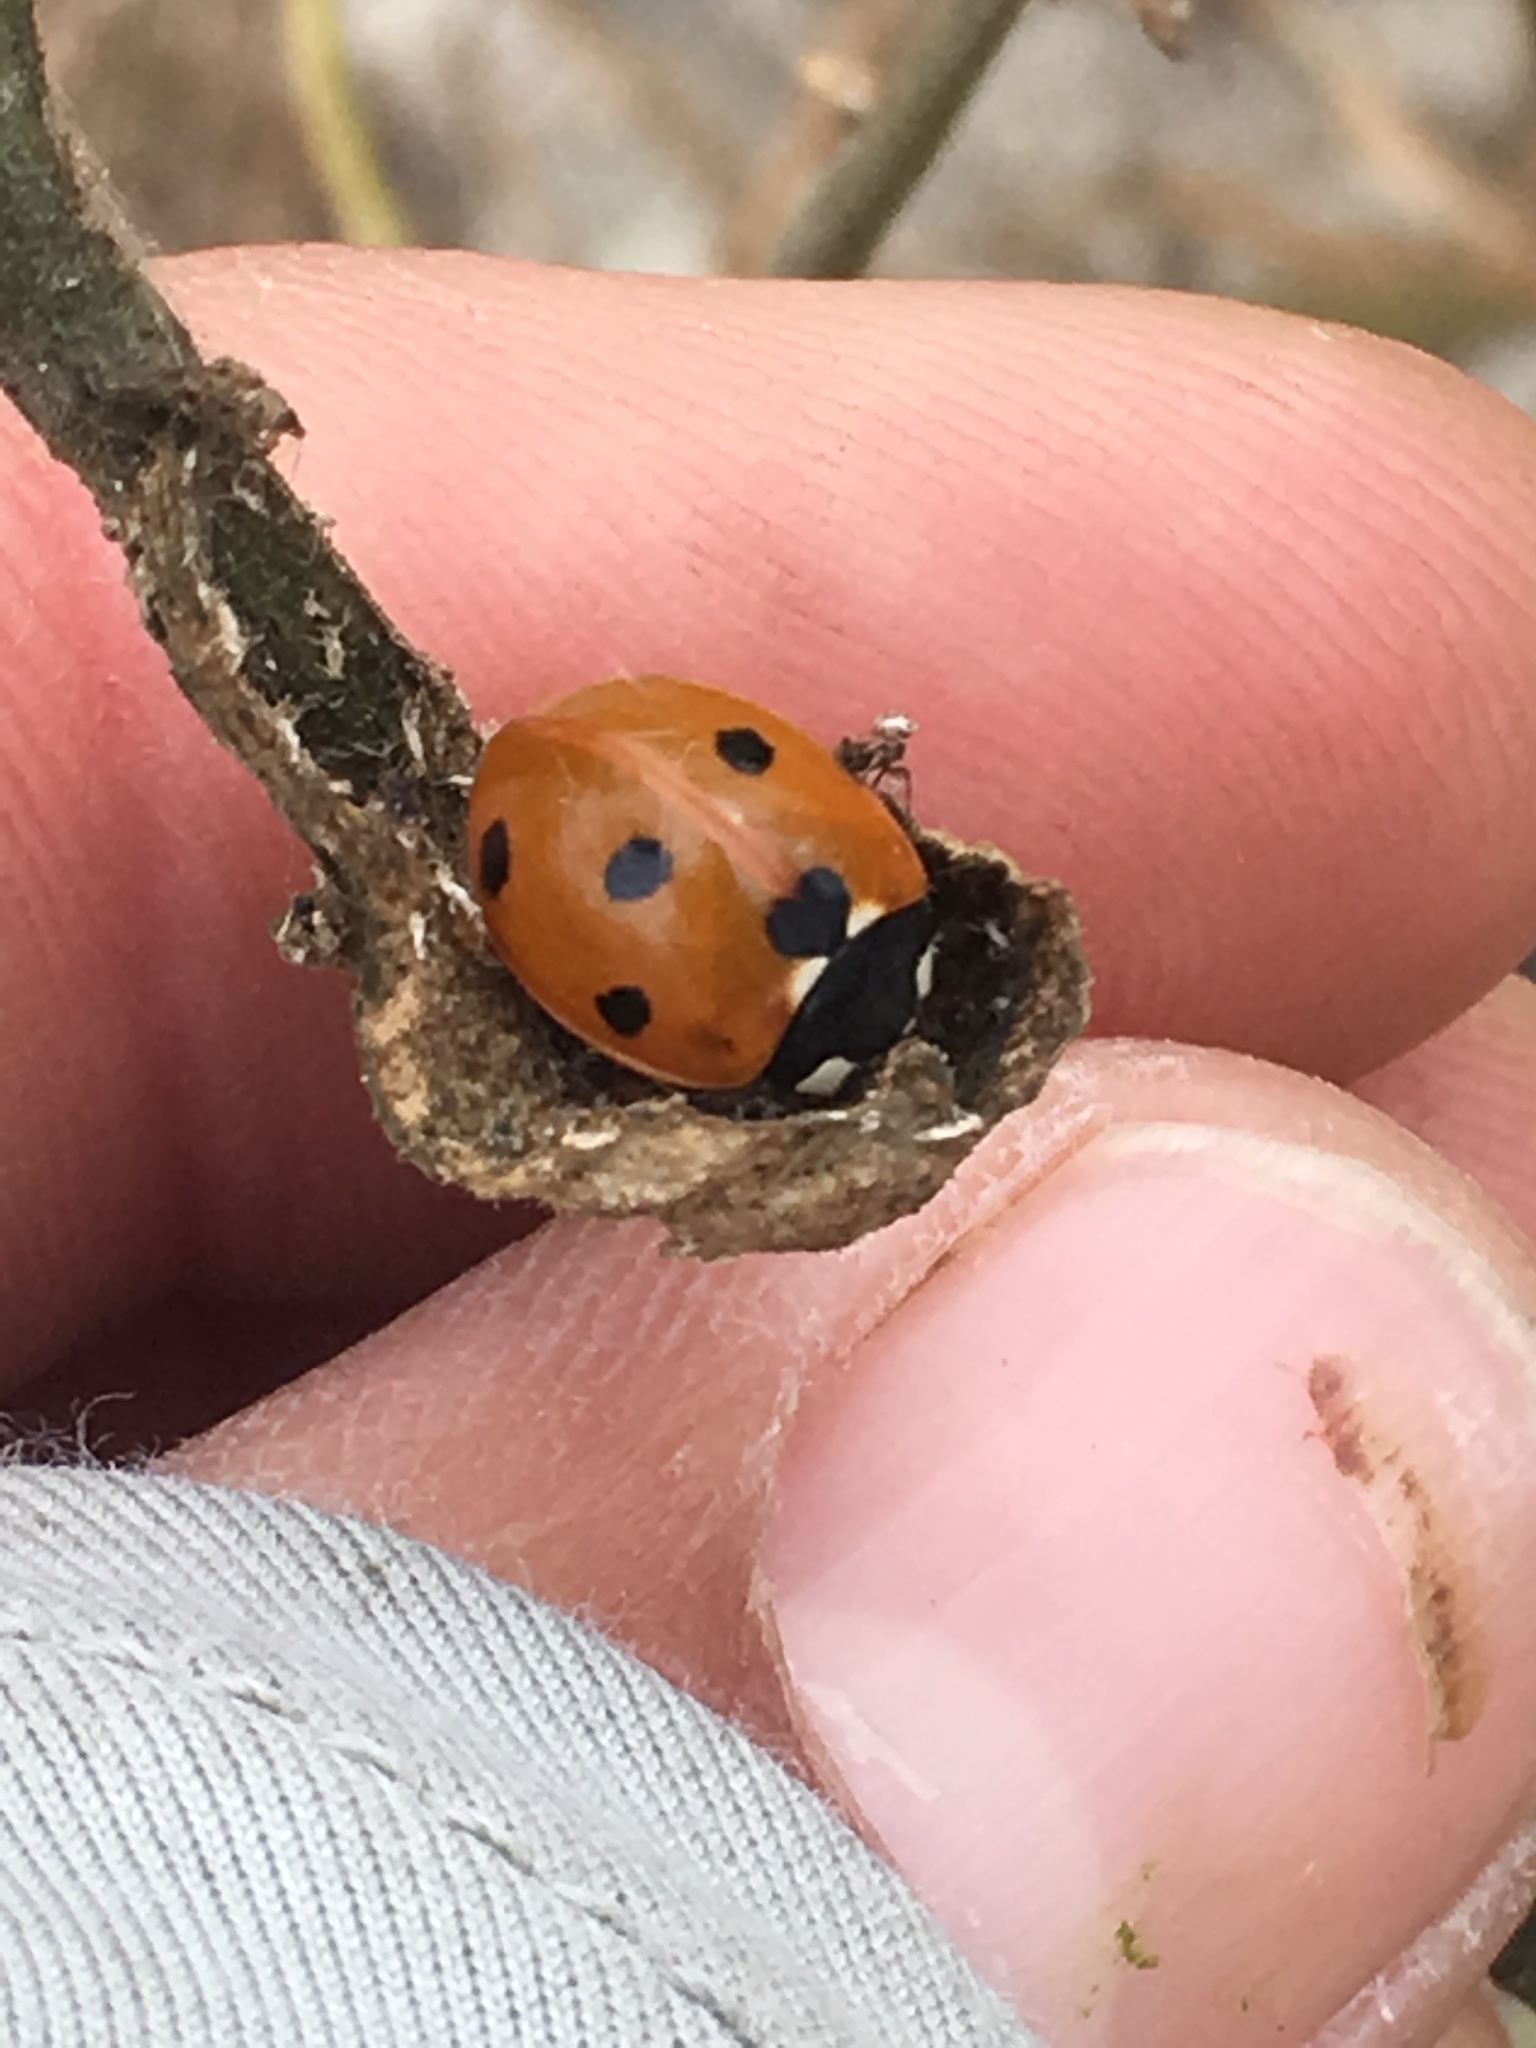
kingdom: Animalia
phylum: Arthropoda
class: Insecta
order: Coleoptera
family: Coccinellidae
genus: Coccinella
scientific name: Coccinella septempunctata
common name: Sevenspotted lady beetle
